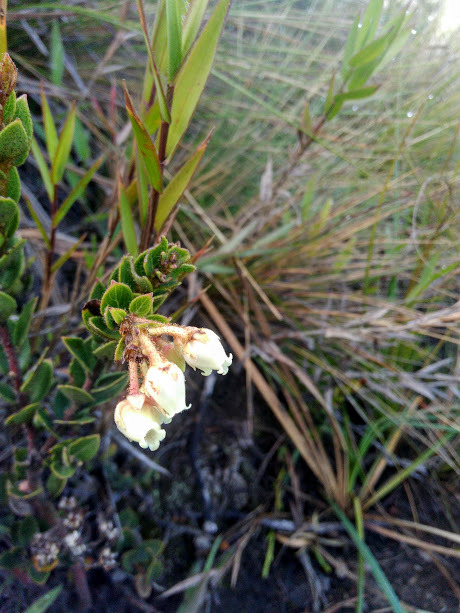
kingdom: Plantae
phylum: Tracheophyta
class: Magnoliopsida
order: Ericales
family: Ericaceae
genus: Gaultheria
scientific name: Gaultheria anastomosans
